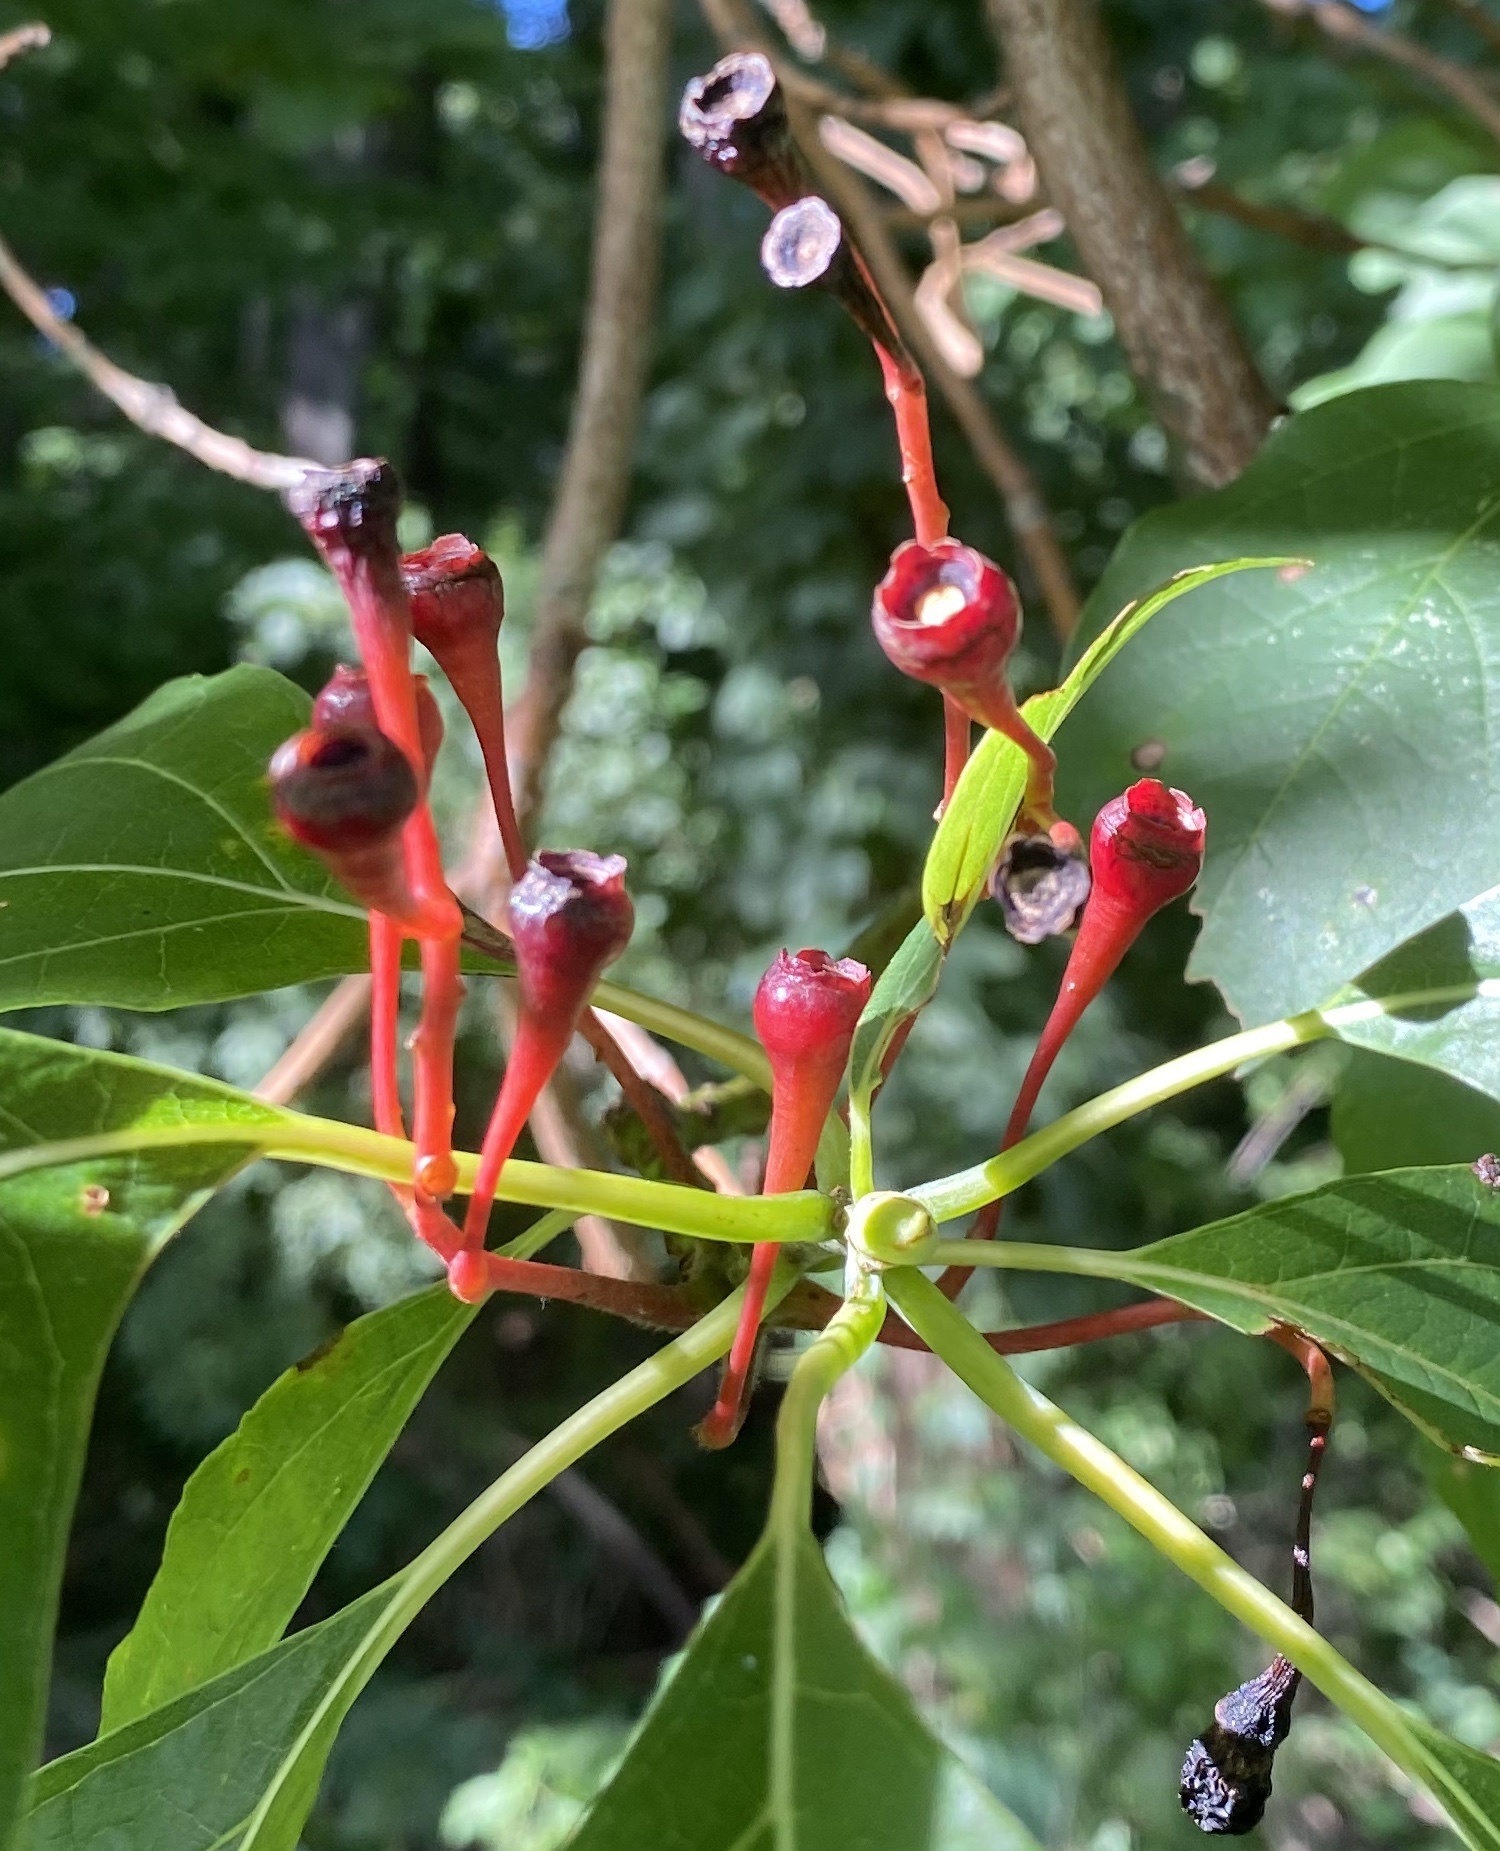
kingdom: Plantae
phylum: Tracheophyta
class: Magnoliopsida
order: Laurales
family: Lauraceae
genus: Sassafras
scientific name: Sassafras albidum
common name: Sassafras
